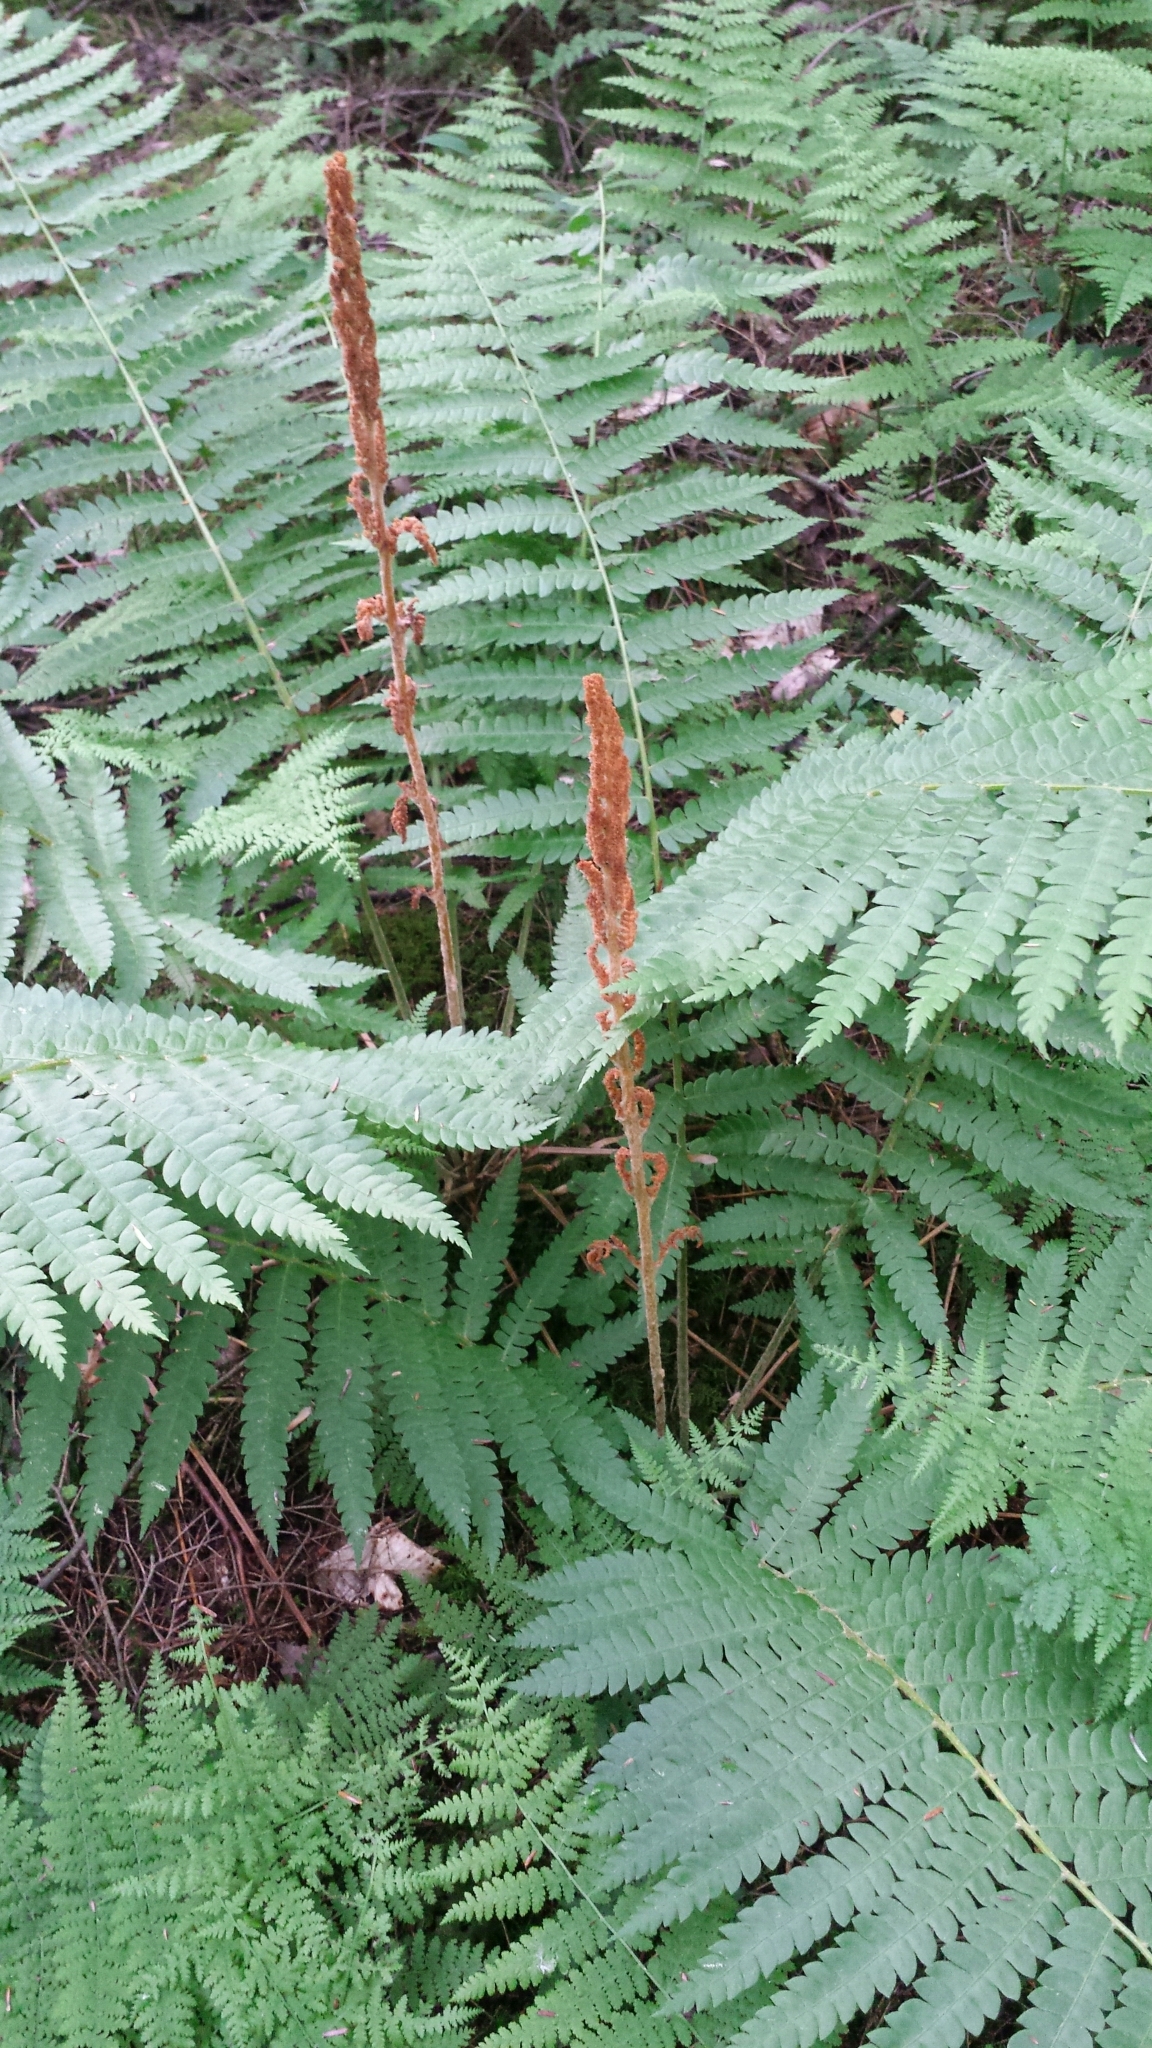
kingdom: Plantae
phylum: Tracheophyta
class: Polypodiopsida
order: Osmundales
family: Osmundaceae
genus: Osmundastrum
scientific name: Osmundastrum cinnamomeum
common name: Cinnamon fern
